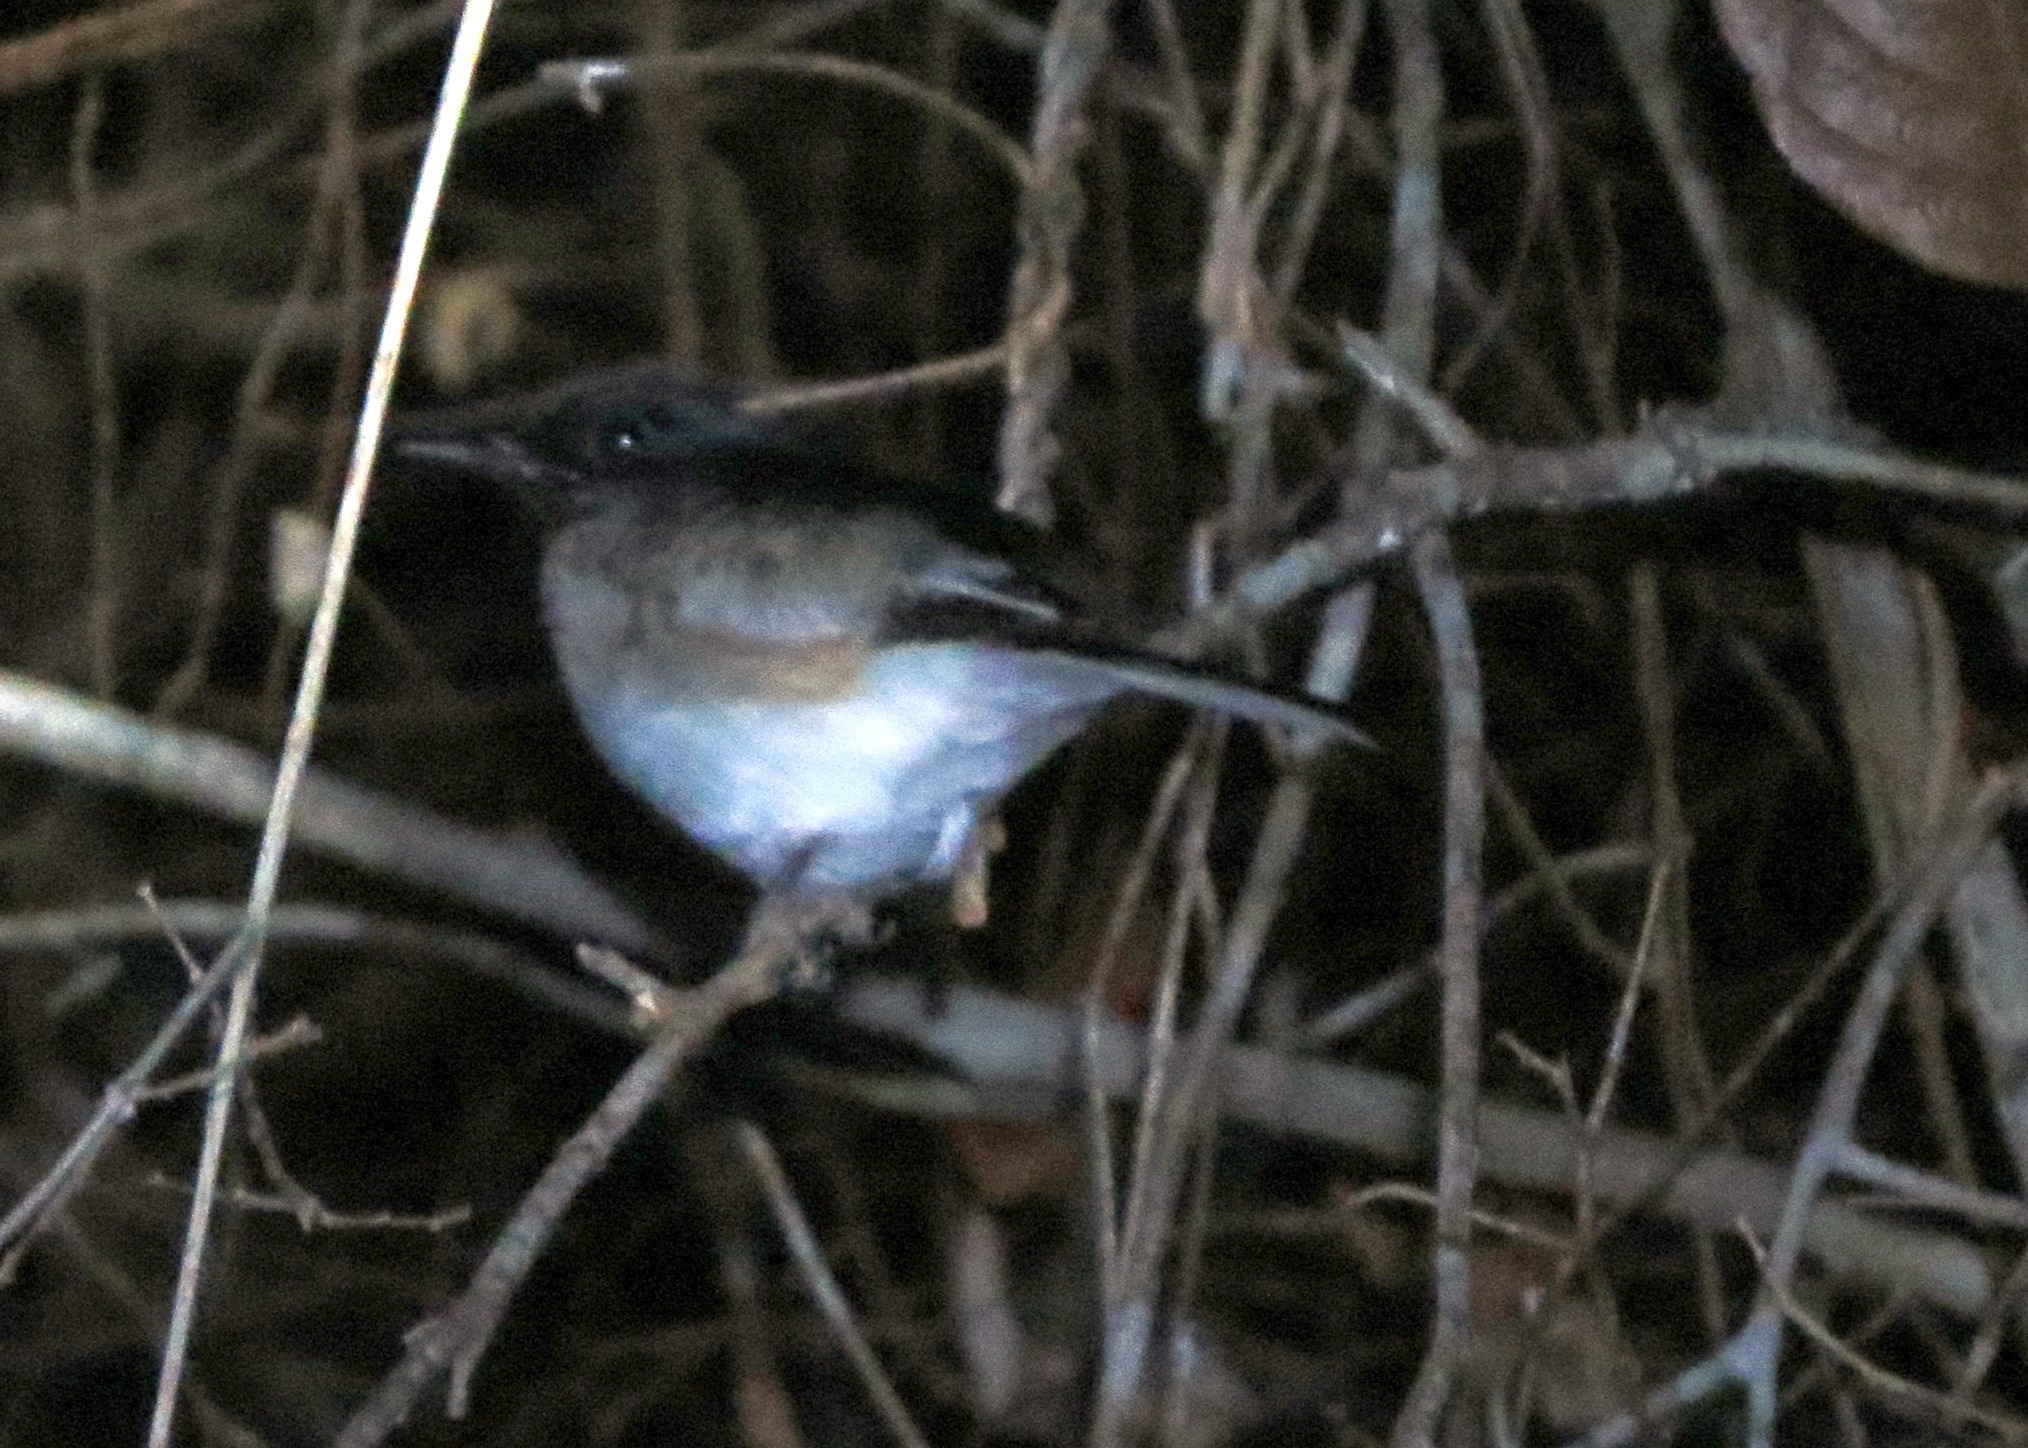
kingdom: Animalia
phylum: Chordata
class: Aves
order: Passeriformes
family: Muscicapidae
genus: Copsychus
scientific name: Copsychus albospecularis
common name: Madagascar magpie-robin
